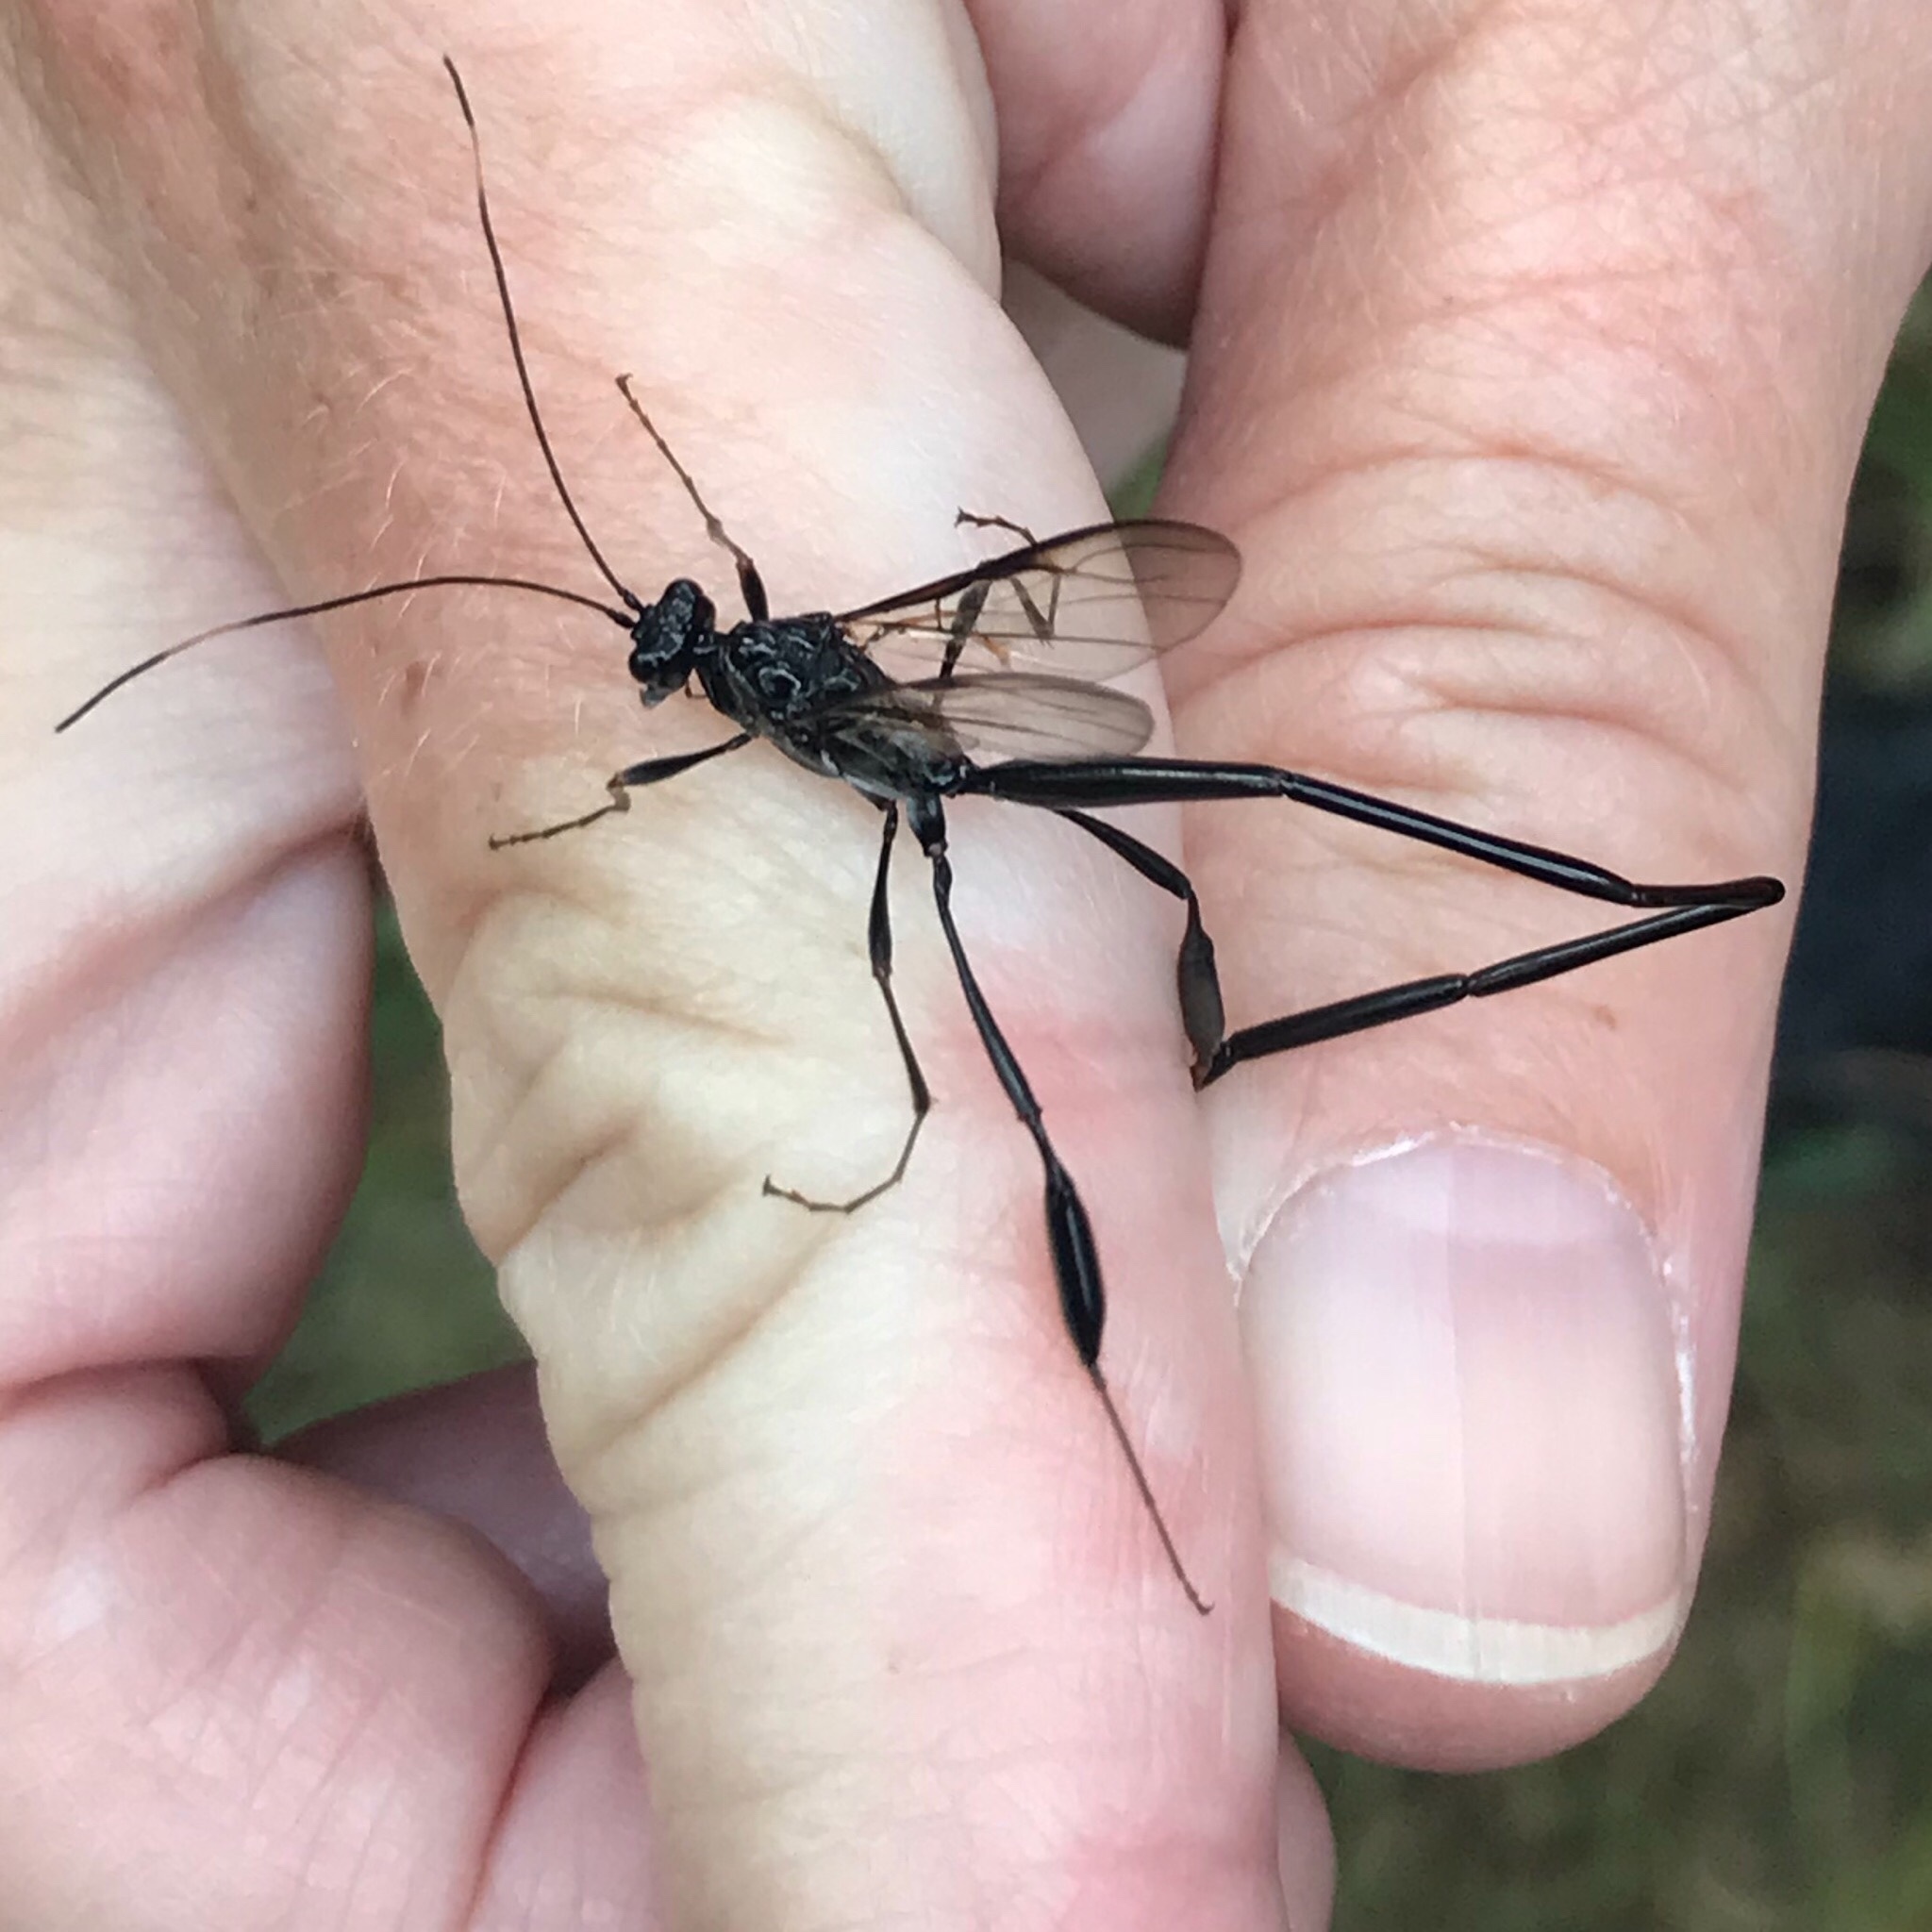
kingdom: Animalia
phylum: Arthropoda
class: Insecta
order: Hymenoptera
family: Pelecinidae
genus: Pelecinus
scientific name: Pelecinus polyturator
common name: American pelecinid wasp
